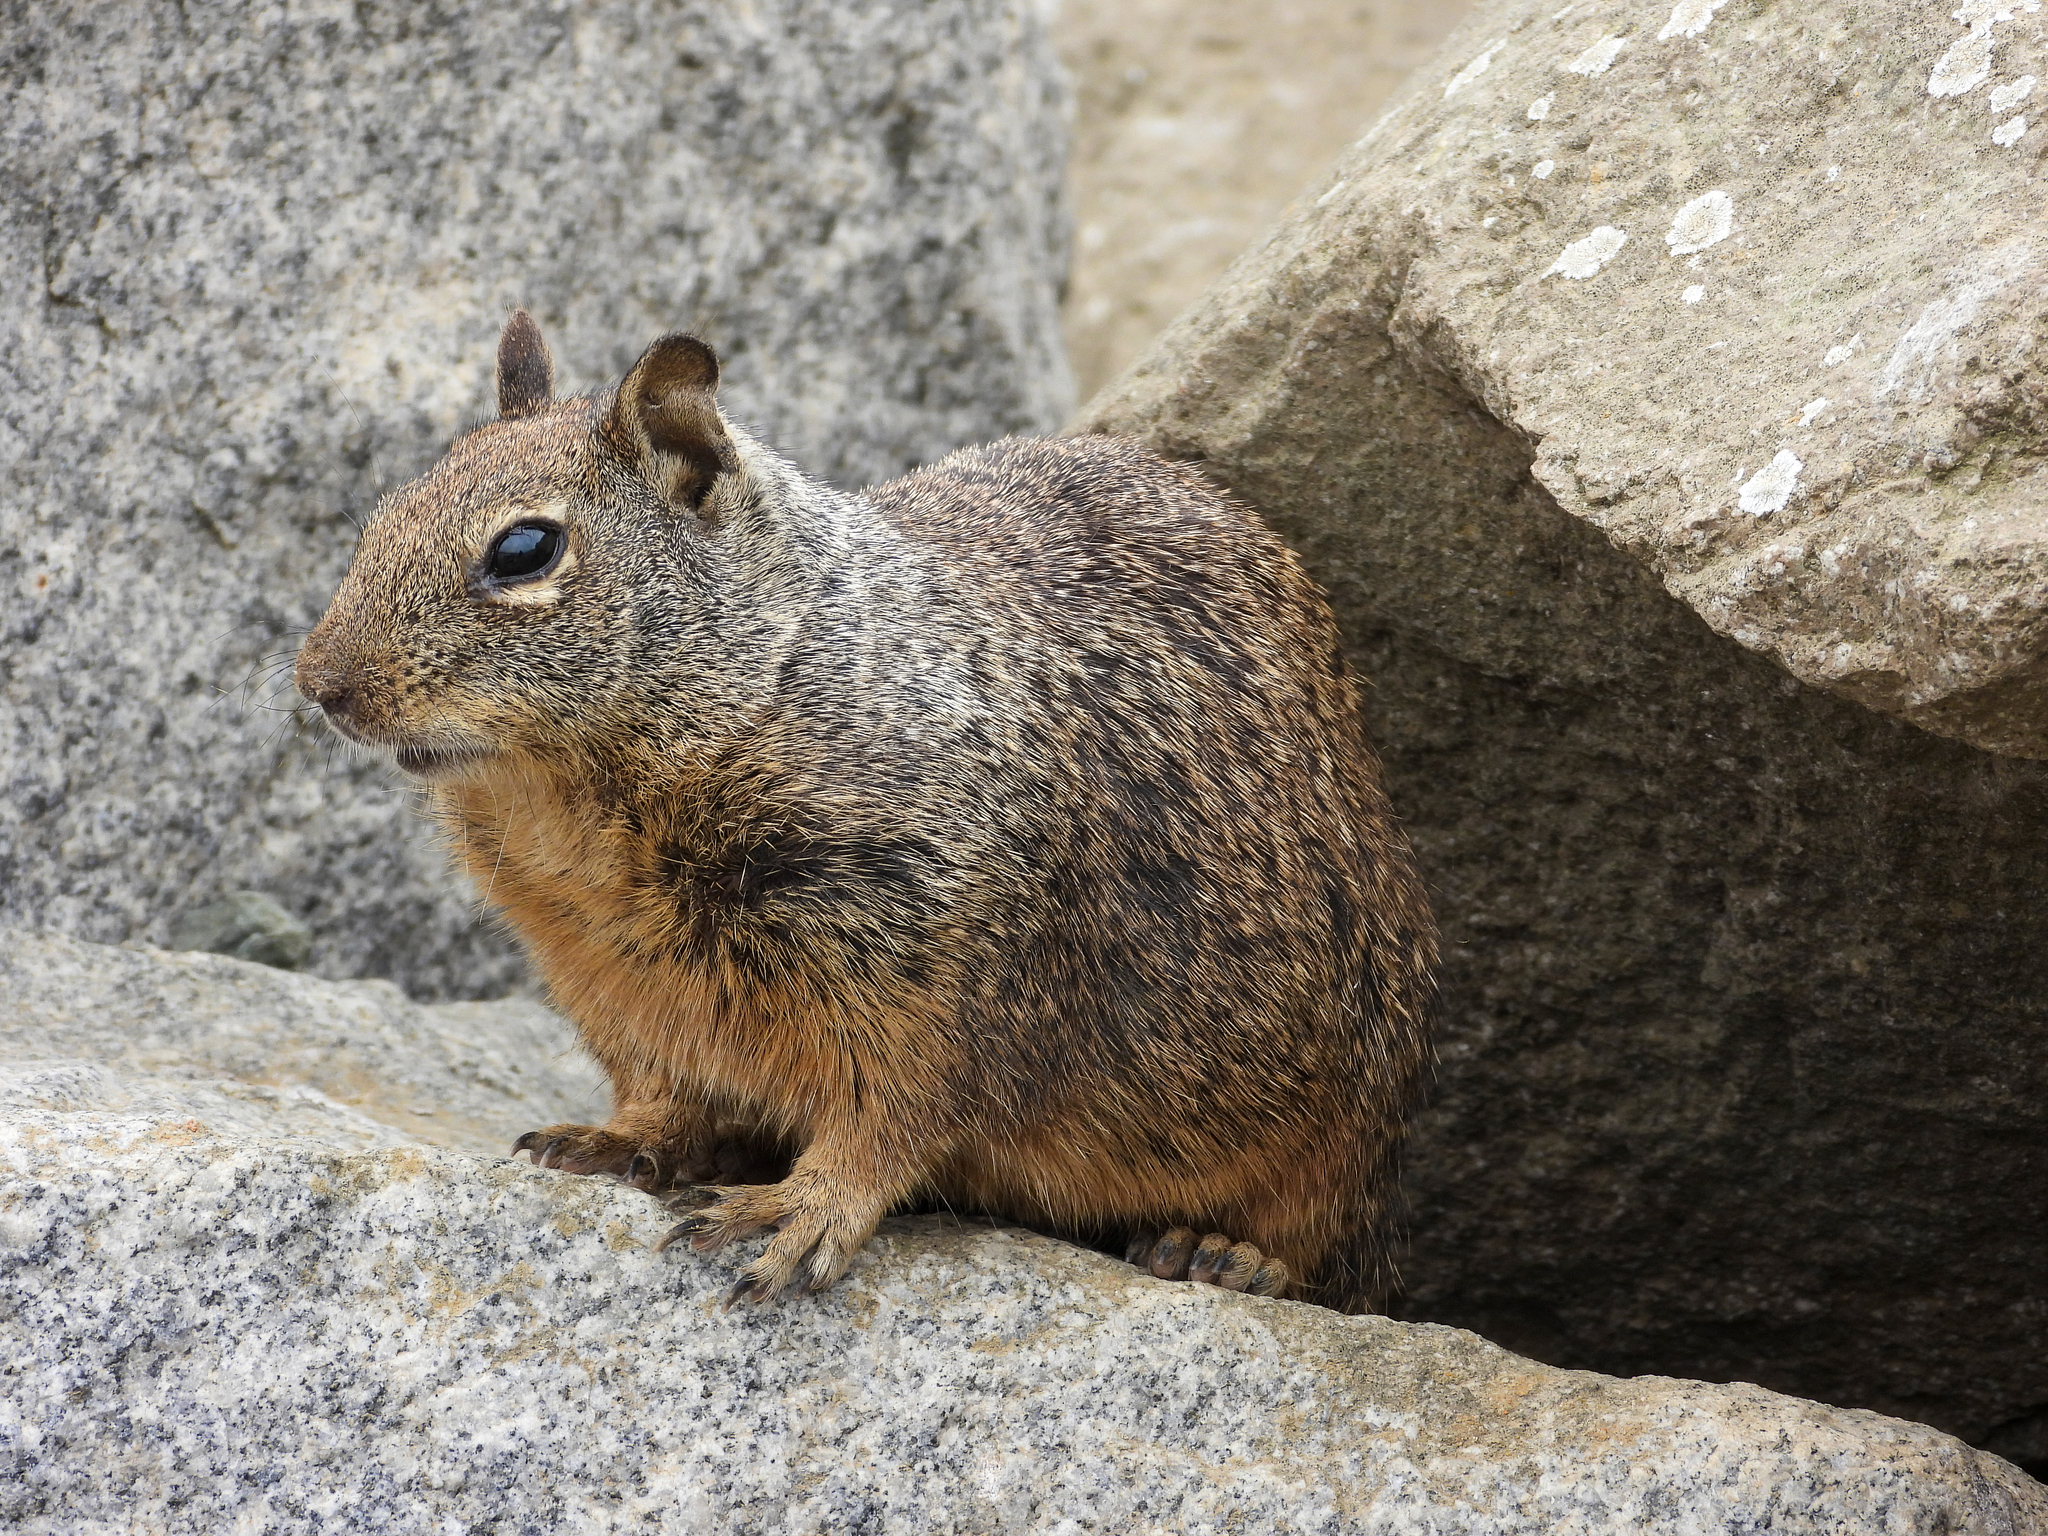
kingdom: Animalia
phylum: Chordata
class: Mammalia
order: Rodentia
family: Sciuridae
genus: Otospermophilus
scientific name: Otospermophilus beecheyi
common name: California ground squirrel
